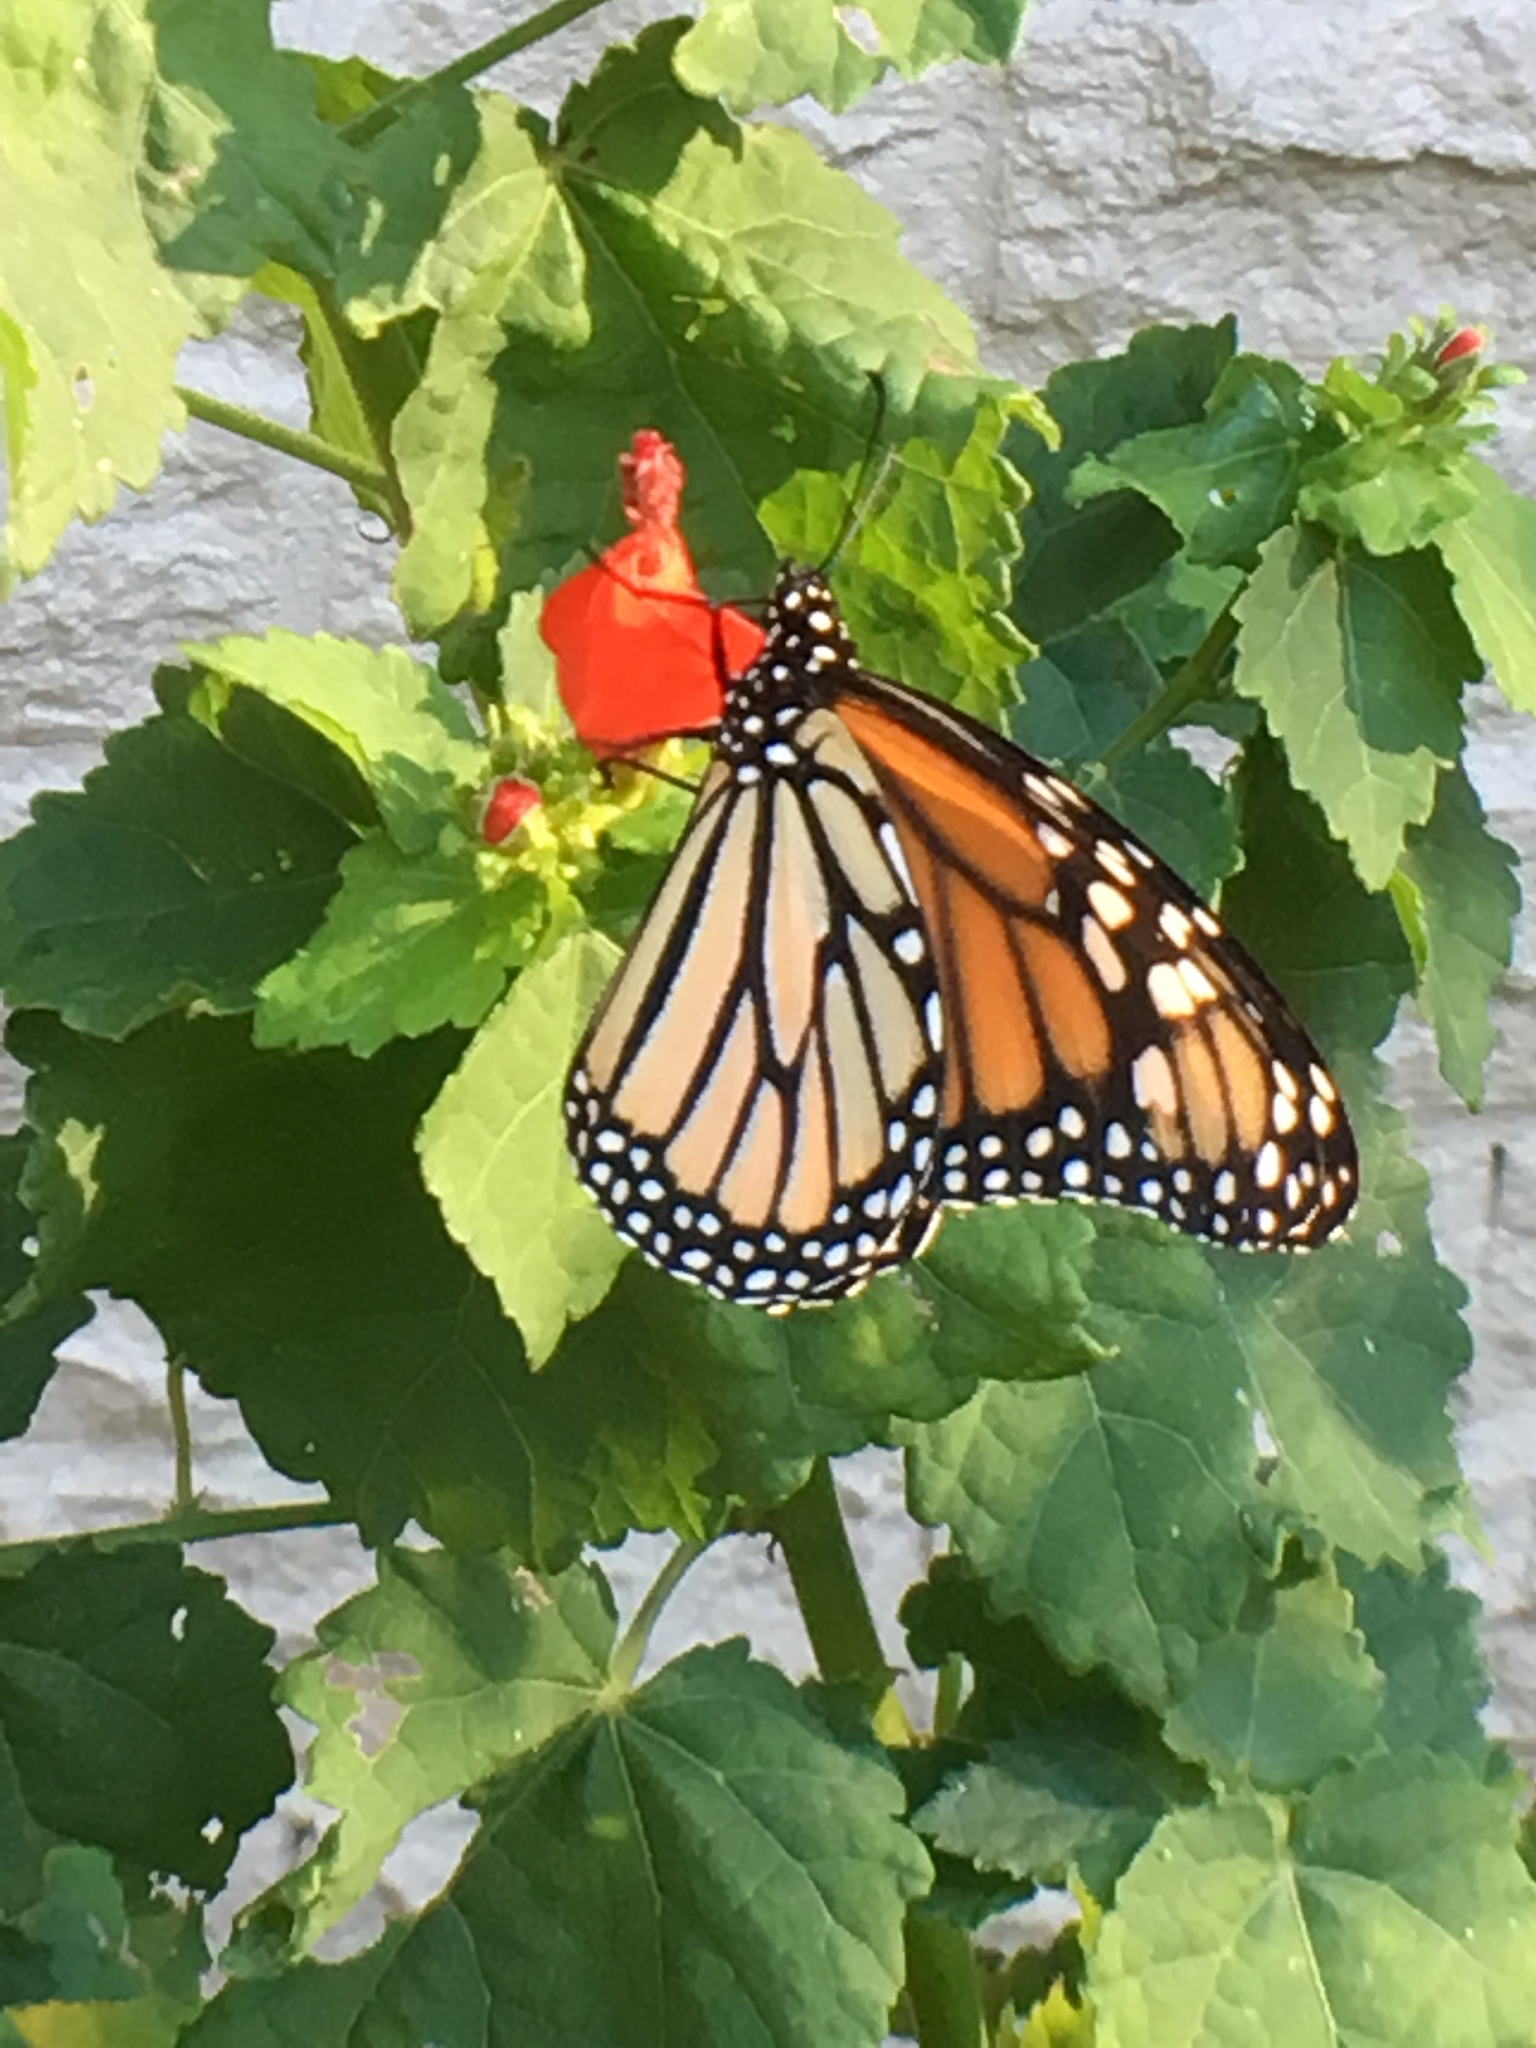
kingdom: Animalia
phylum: Arthropoda
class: Insecta
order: Lepidoptera
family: Nymphalidae
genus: Danaus
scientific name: Danaus plexippus
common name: Monarch
